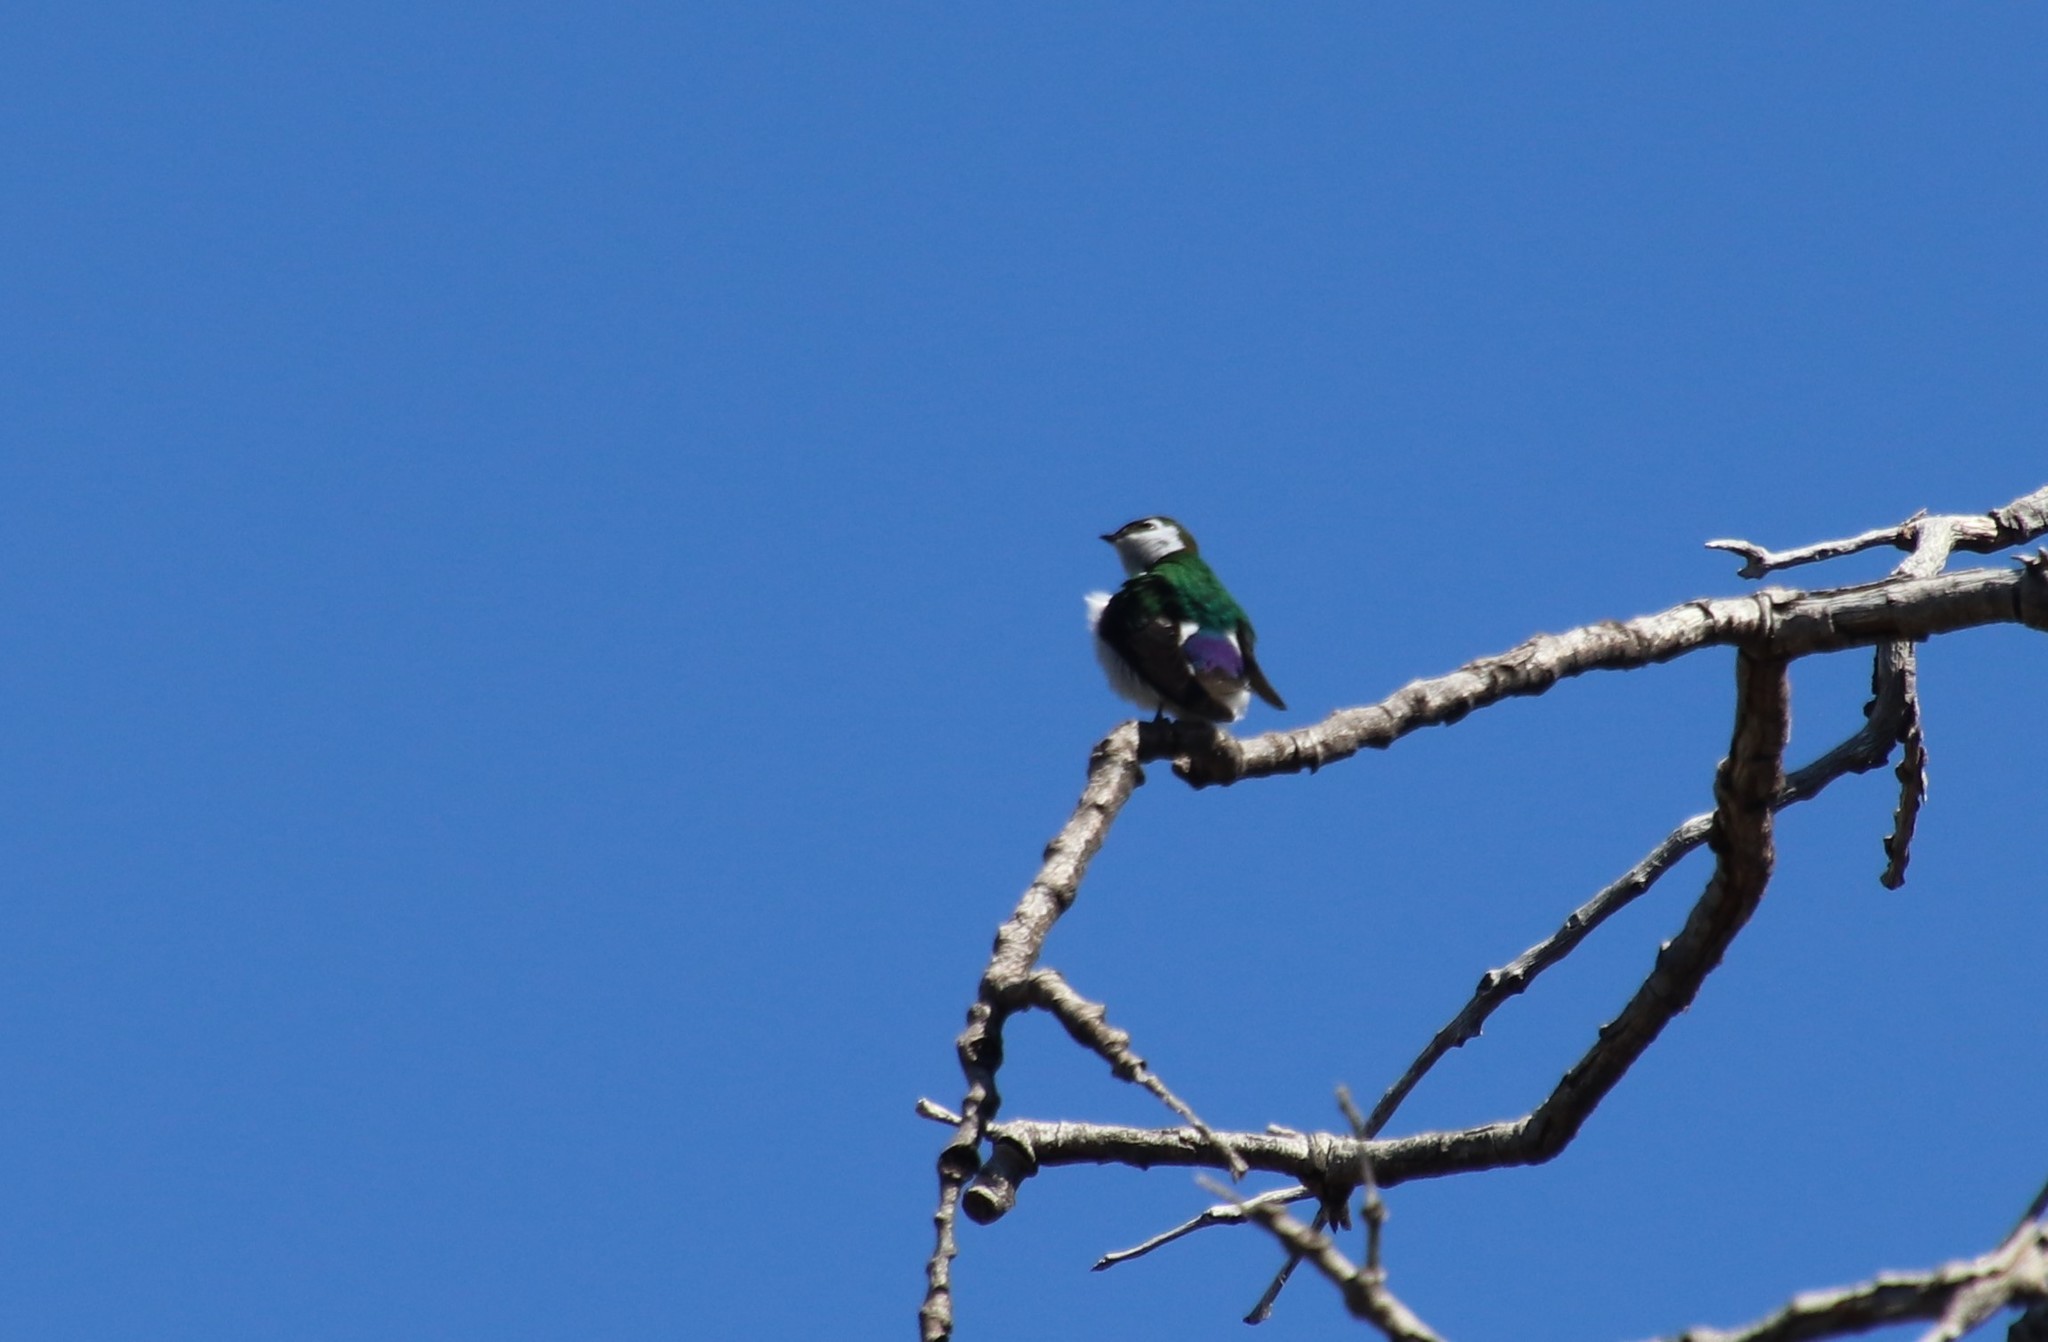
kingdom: Animalia
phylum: Chordata
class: Aves
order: Passeriformes
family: Hirundinidae
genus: Tachycineta
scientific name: Tachycineta thalassina
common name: Violet-green swallow
